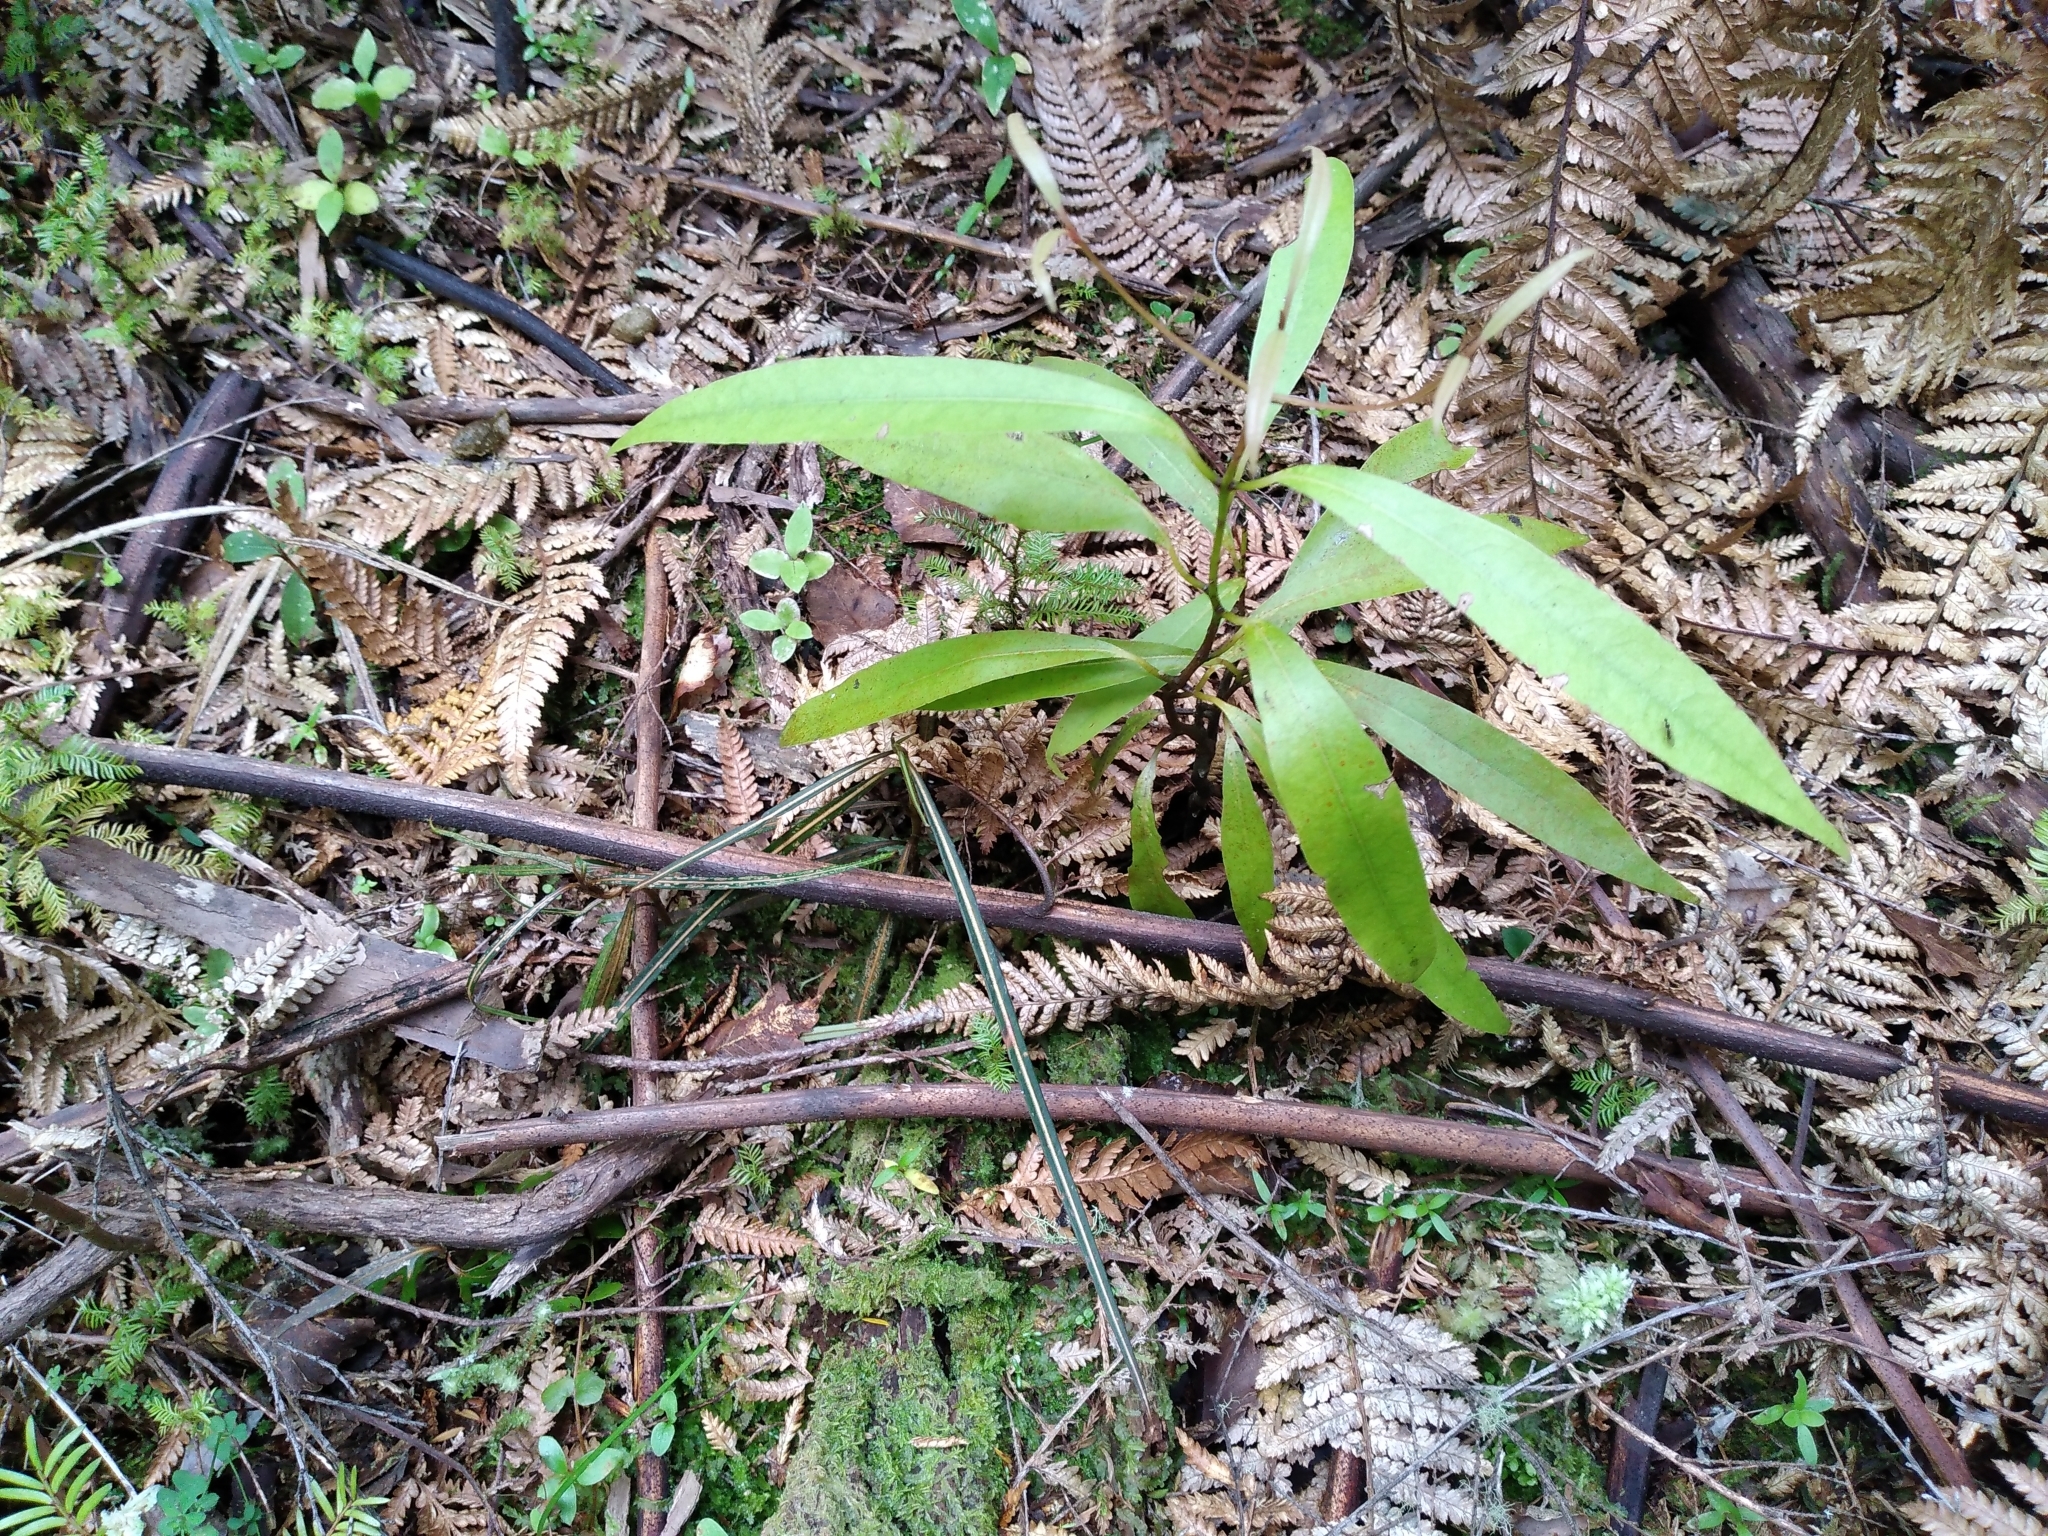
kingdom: Plantae
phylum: Tracheophyta
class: Magnoliopsida
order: Laurales
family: Lauraceae
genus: Beilschmiedia
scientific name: Beilschmiedia tawa
